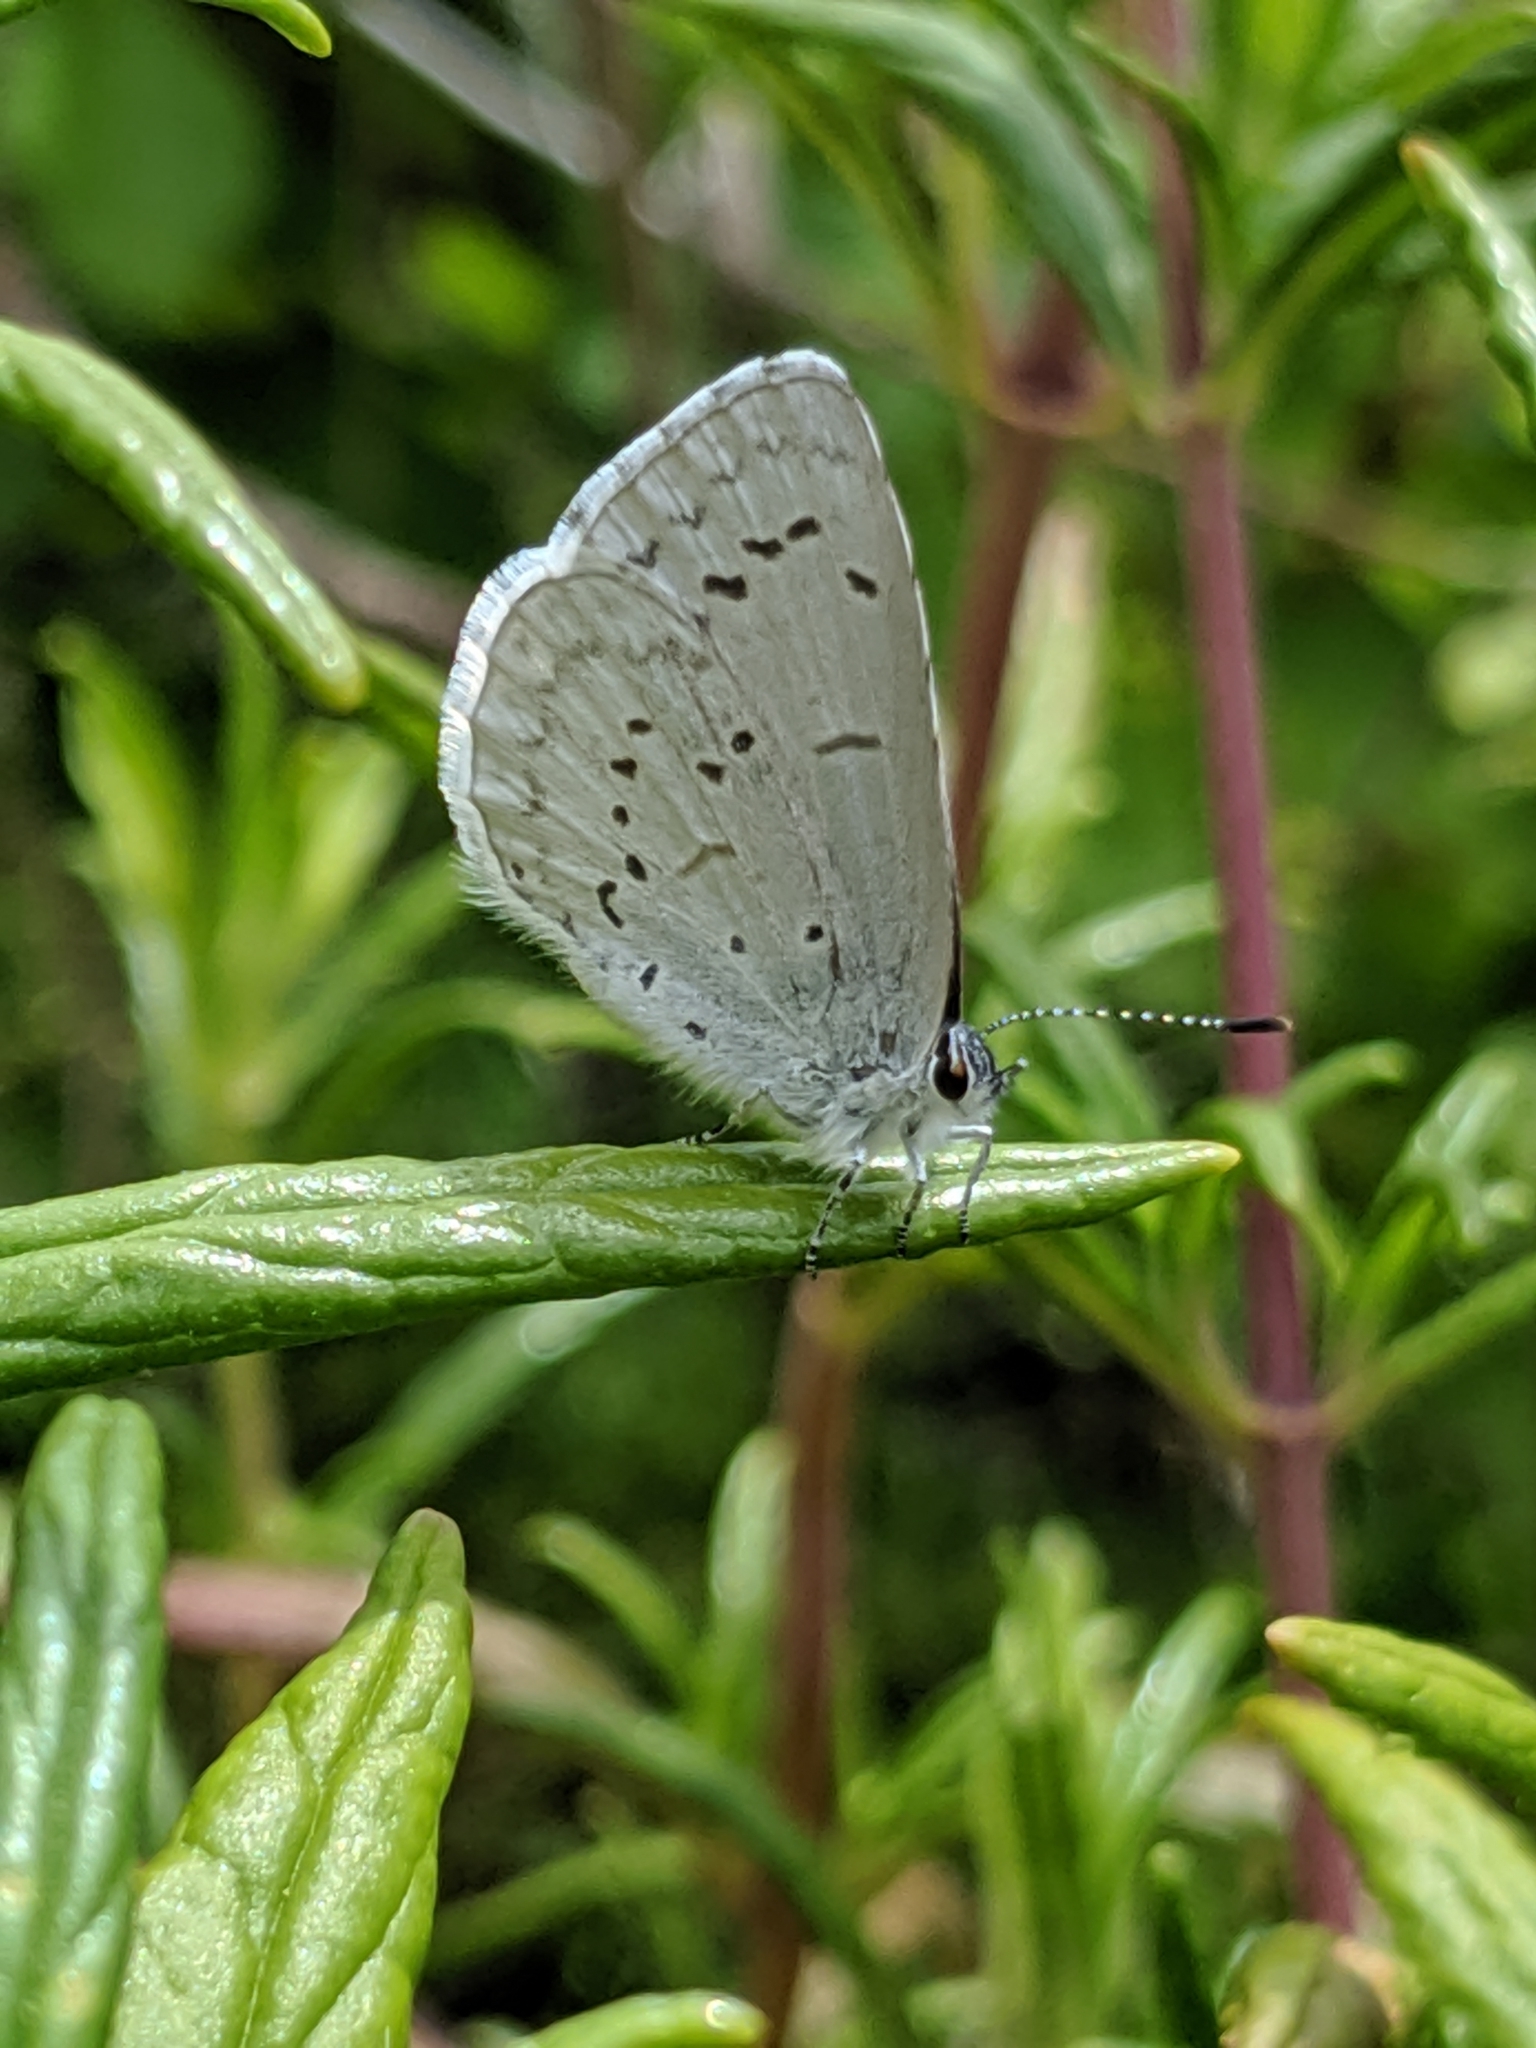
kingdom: Animalia
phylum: Arthropoda
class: Insecta
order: Lepidoptera
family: Lycaenidae
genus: Celastrina
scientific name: Celastrina ladon
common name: Spring azure
